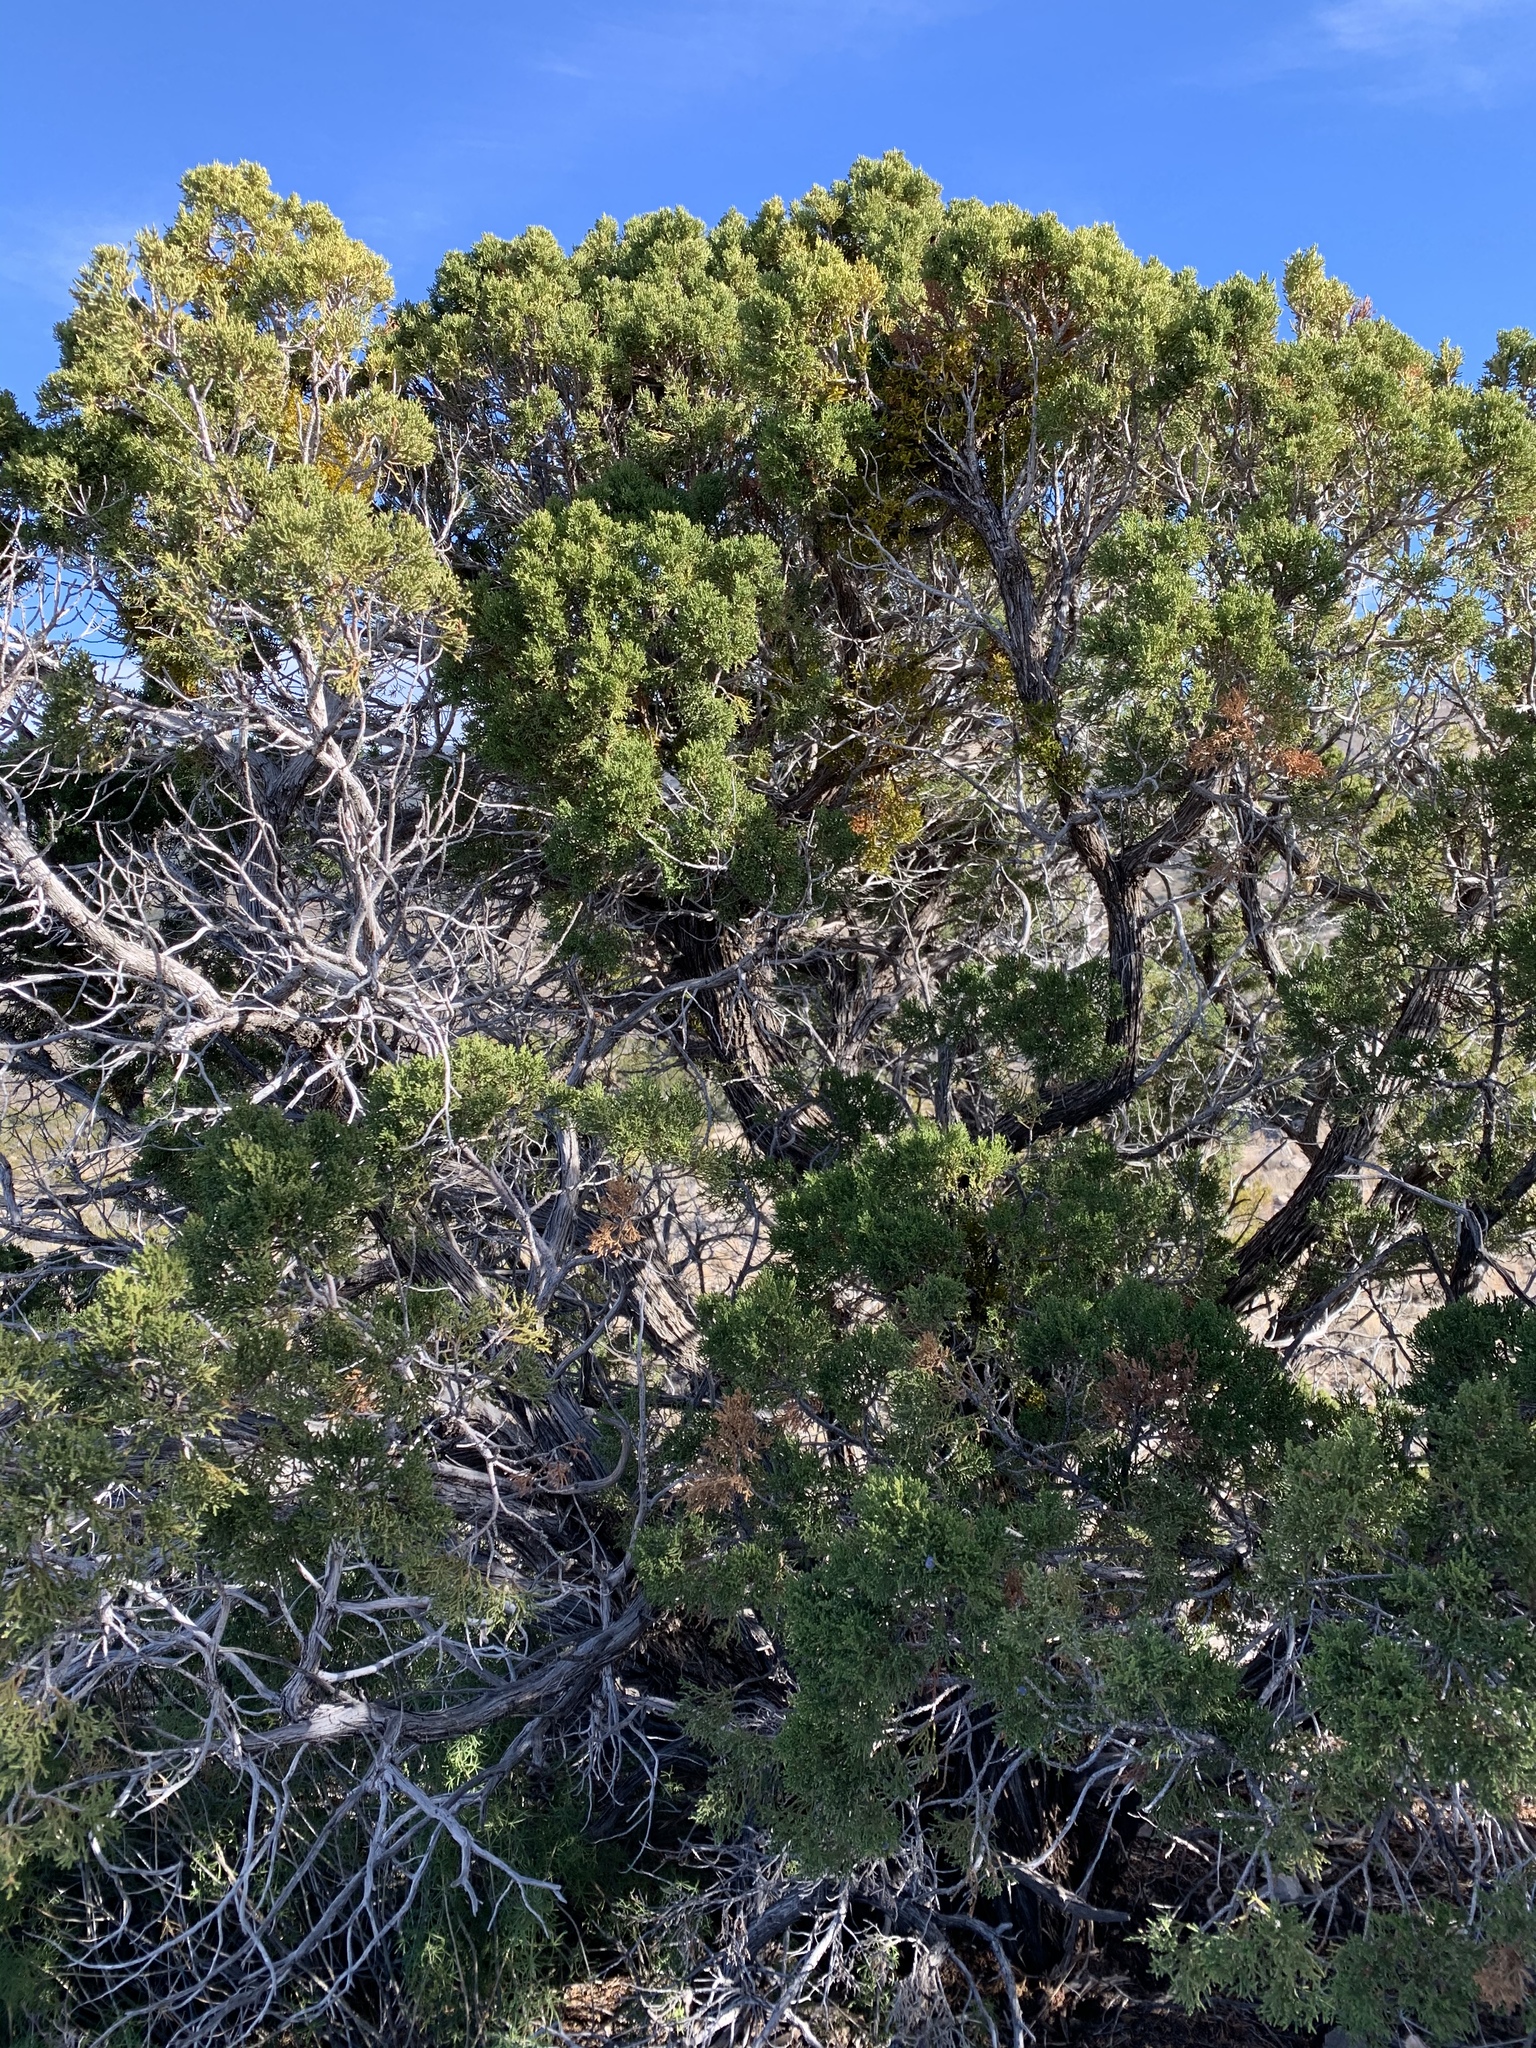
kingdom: Plantae
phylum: Tracheophyta
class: Pinopsida
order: Pinales
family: Cupressaceae
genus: Juniperus
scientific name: Juniperus monosperma
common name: One-seed juniper
